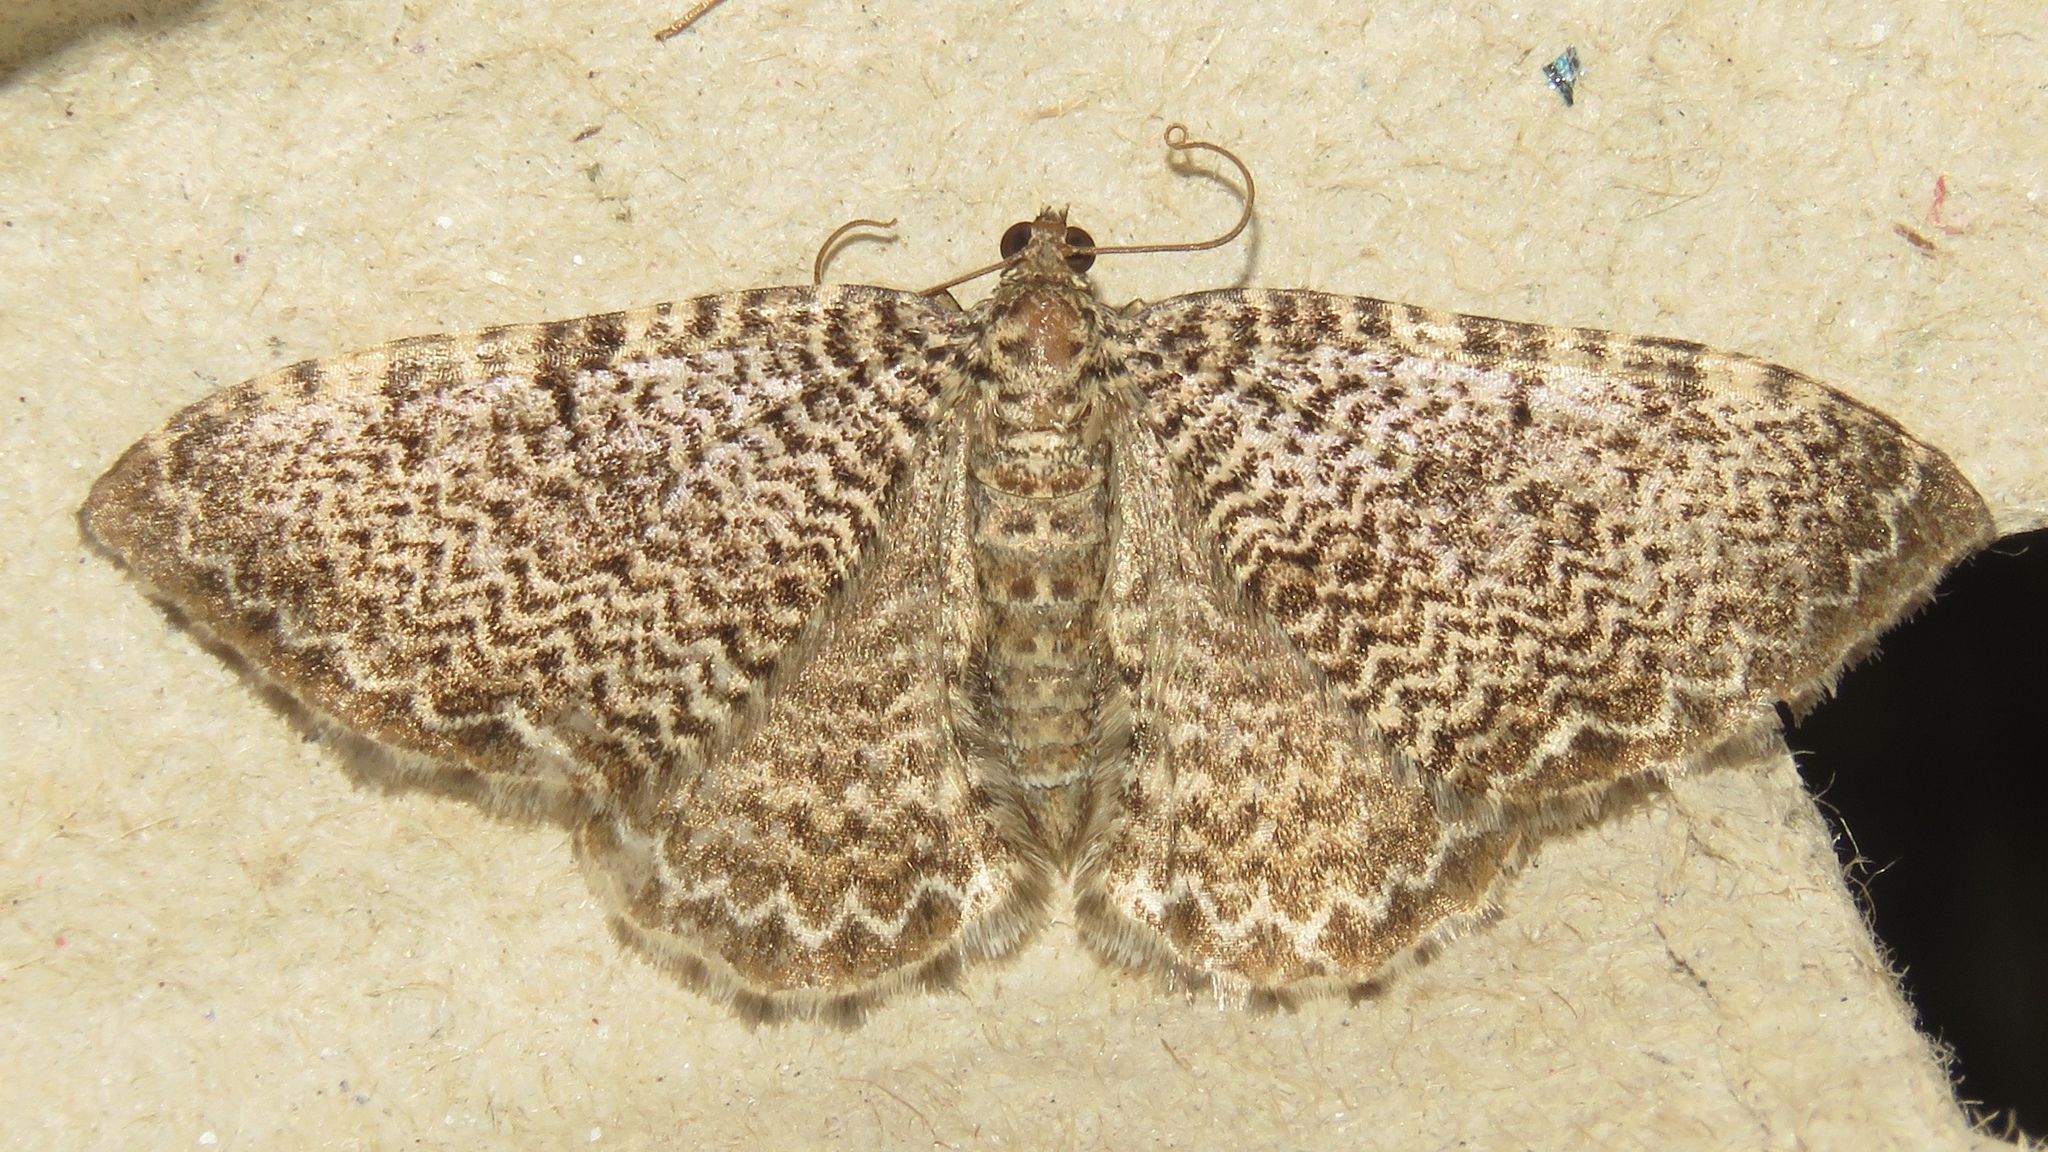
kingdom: Animalia
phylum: Arthropoda
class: Insecta
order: Lepidoptera
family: Geometridae
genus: Rheumaptera
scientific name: Rheumaptera
